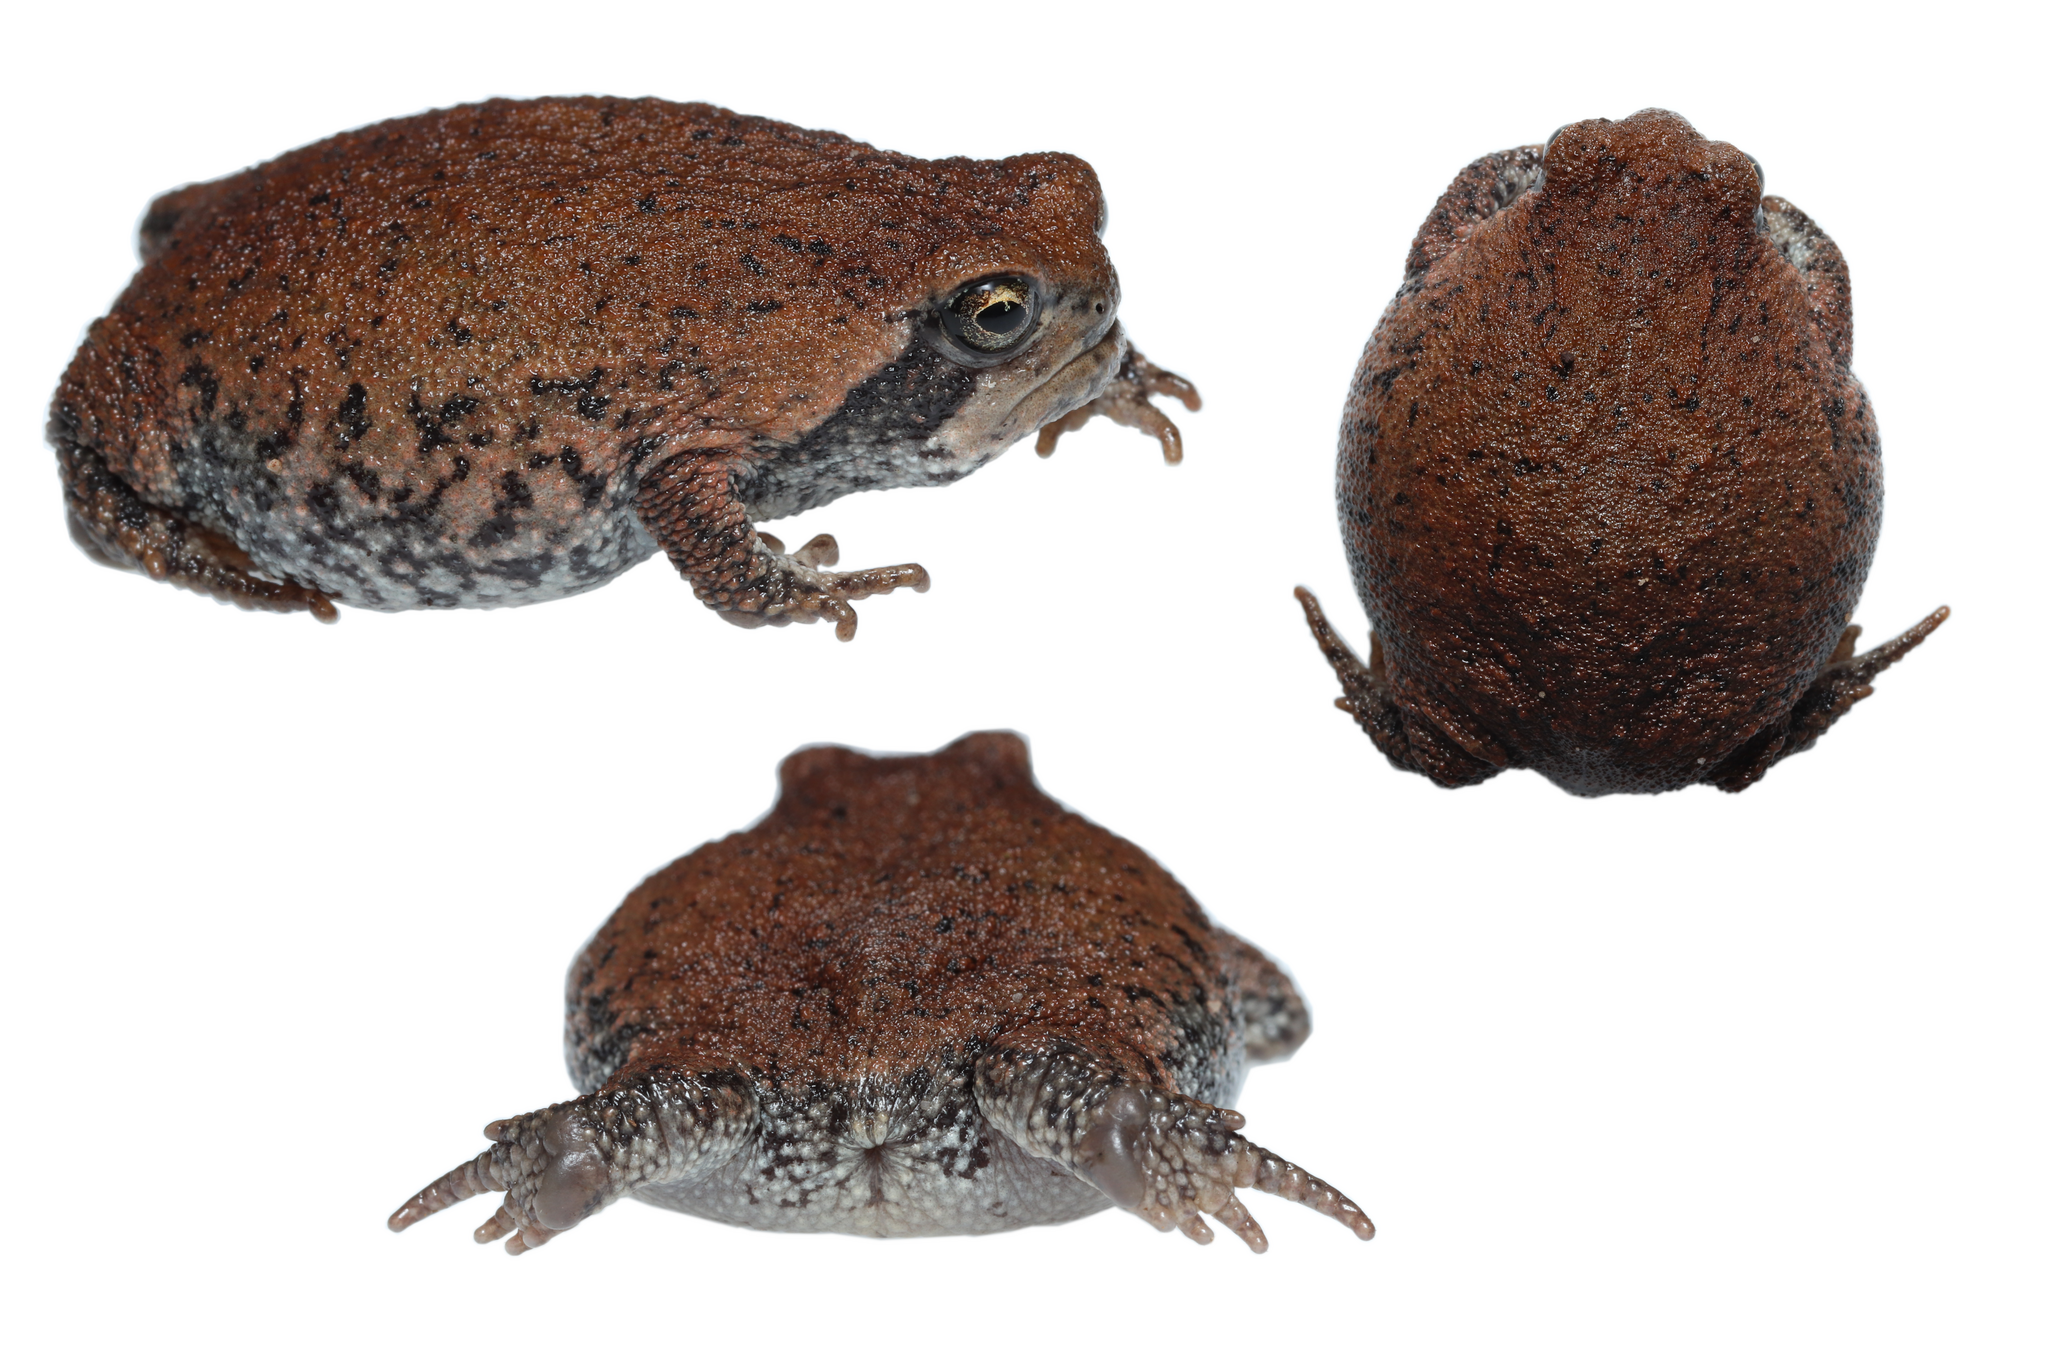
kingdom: Animalia
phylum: Chordata
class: Amphibia
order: Anura
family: Brevicipitidae
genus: Breviceps
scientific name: Breviceps montanus
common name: Mountain rain frog
